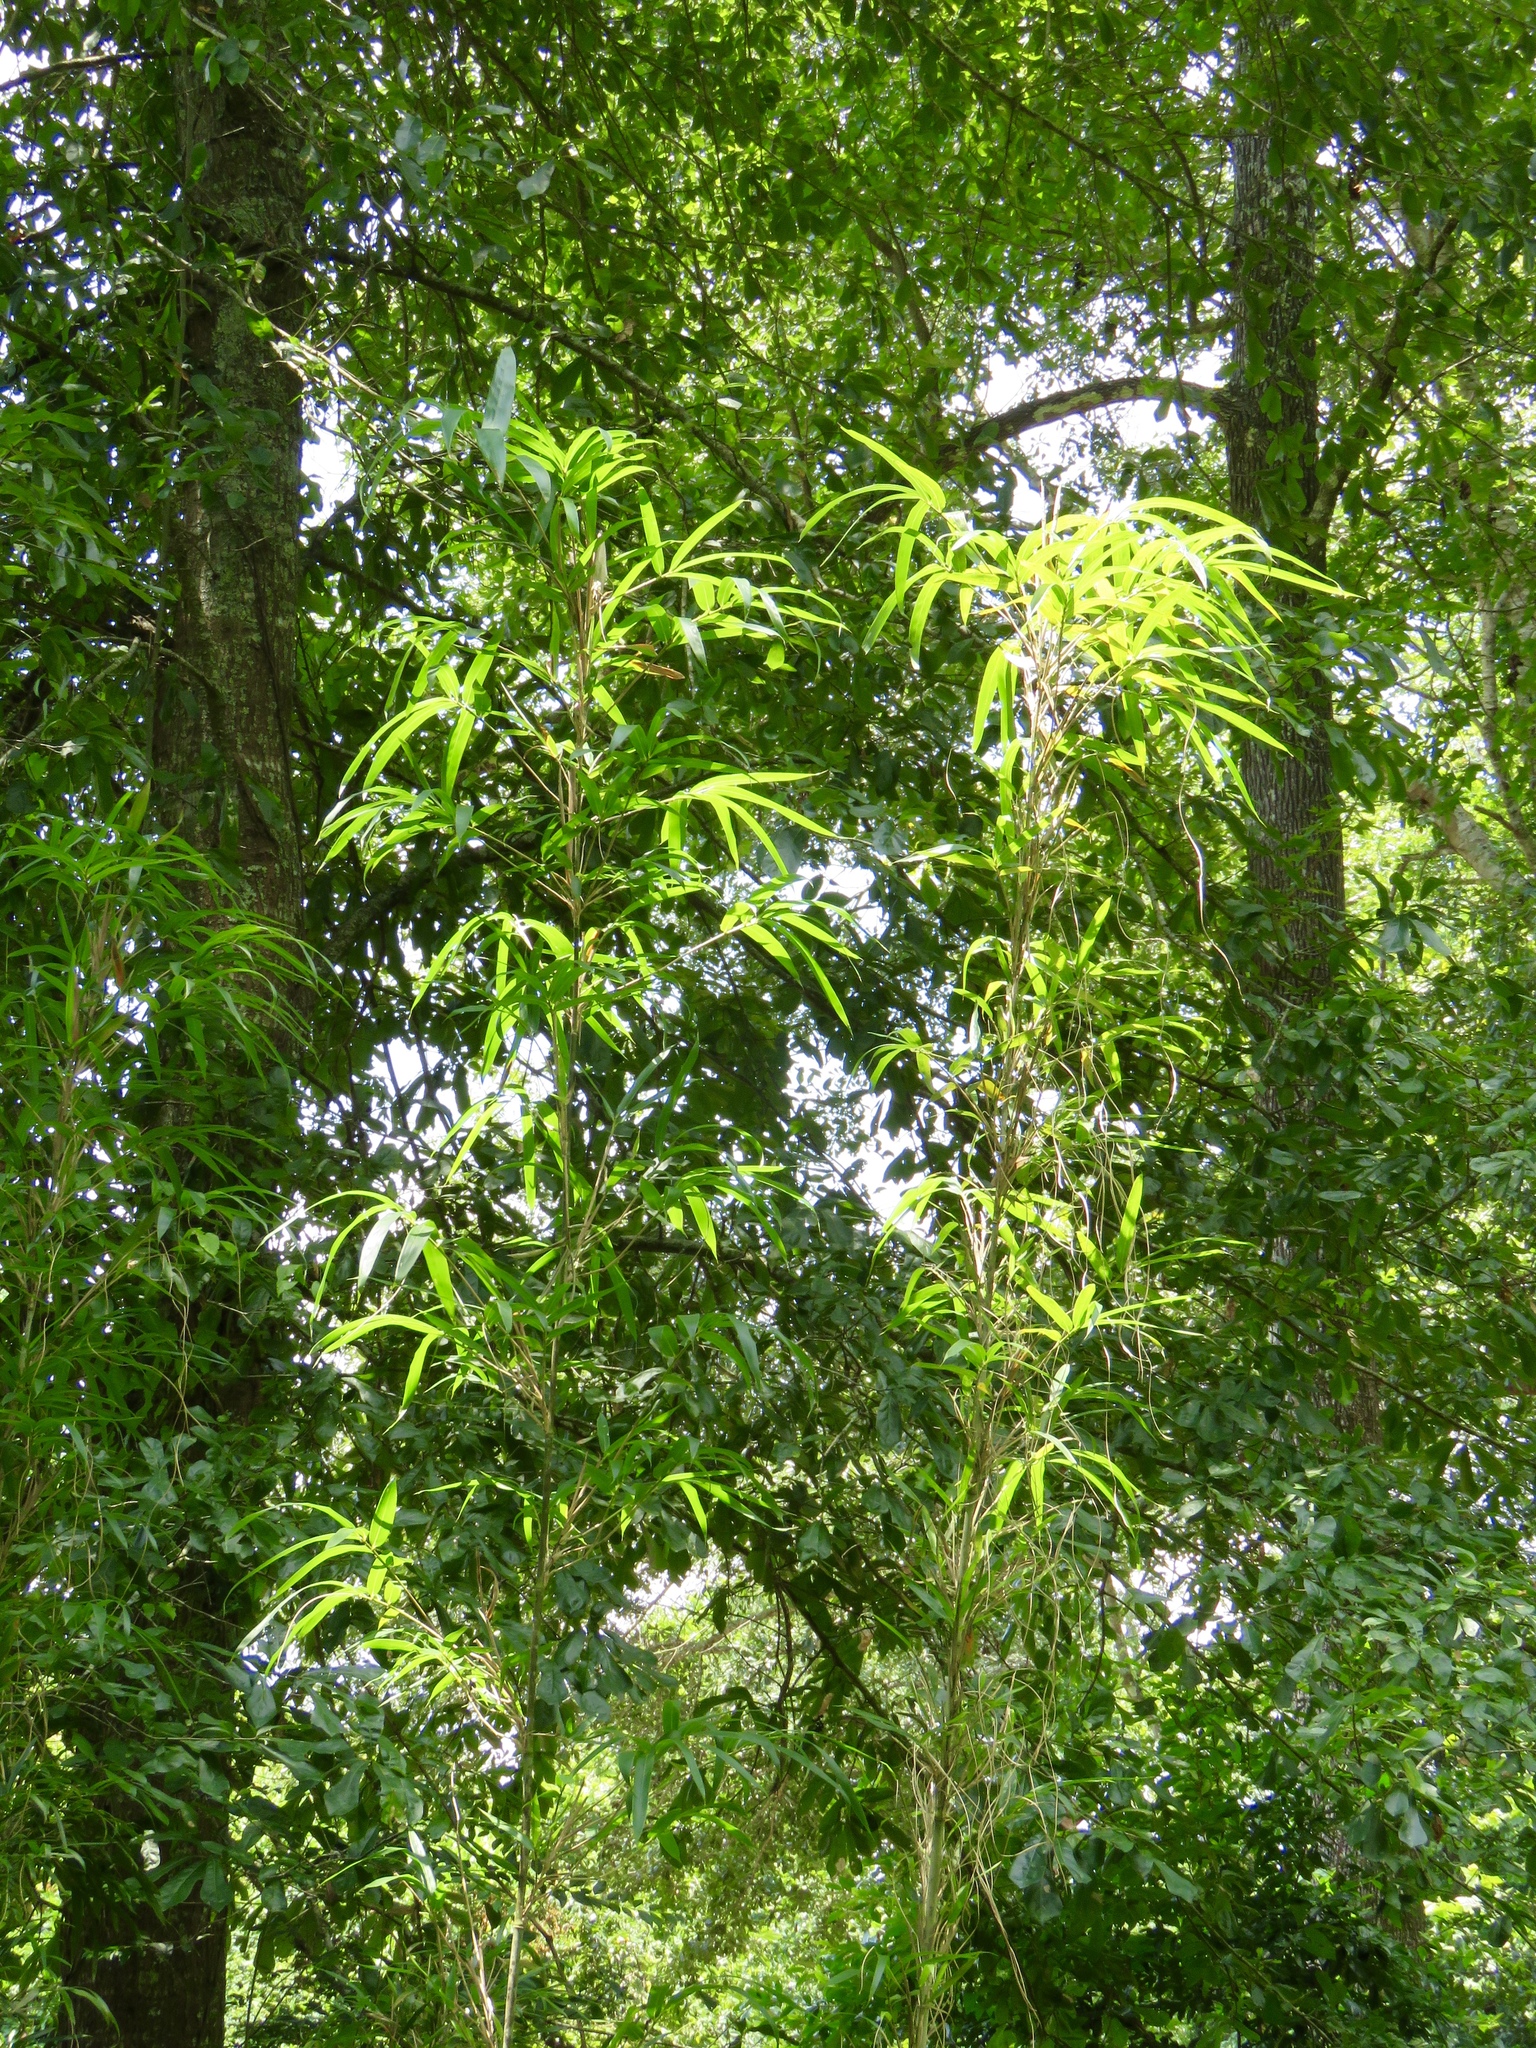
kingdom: Plantae
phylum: Tracheophyta
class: Liliopsida
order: Poales
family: Poaceae
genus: Arundinaria
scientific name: Arundinaria gigantea
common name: Giant cane
